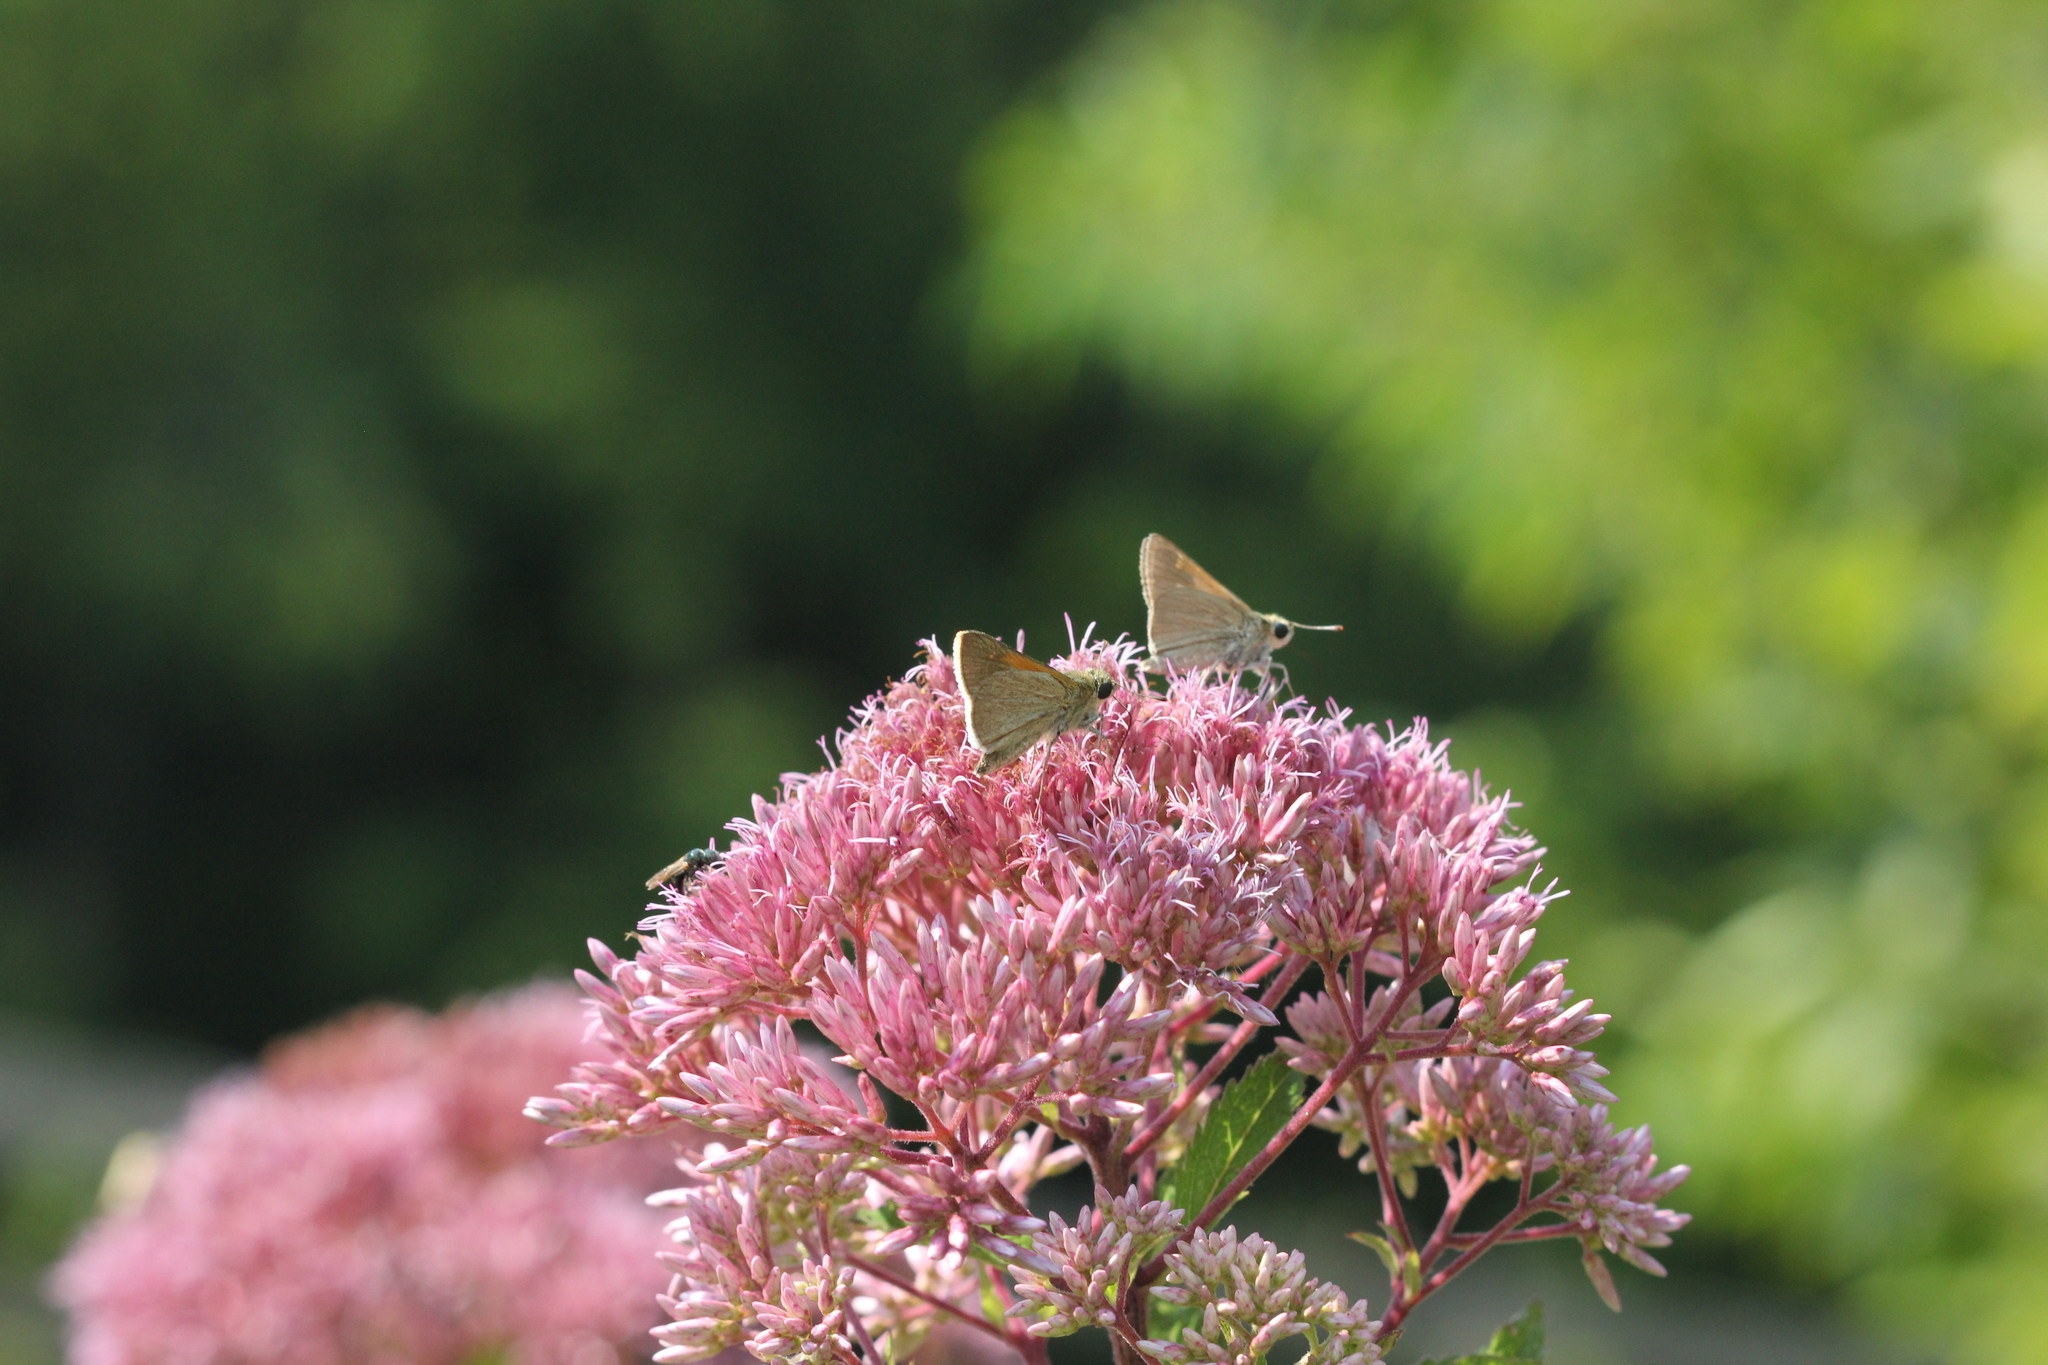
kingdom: Animalia
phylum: Arthropoda
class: Insecta
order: Lepidoptera
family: Hesperiidae
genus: Polites
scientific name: Polites themistocles
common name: Tawny-edged skipper
